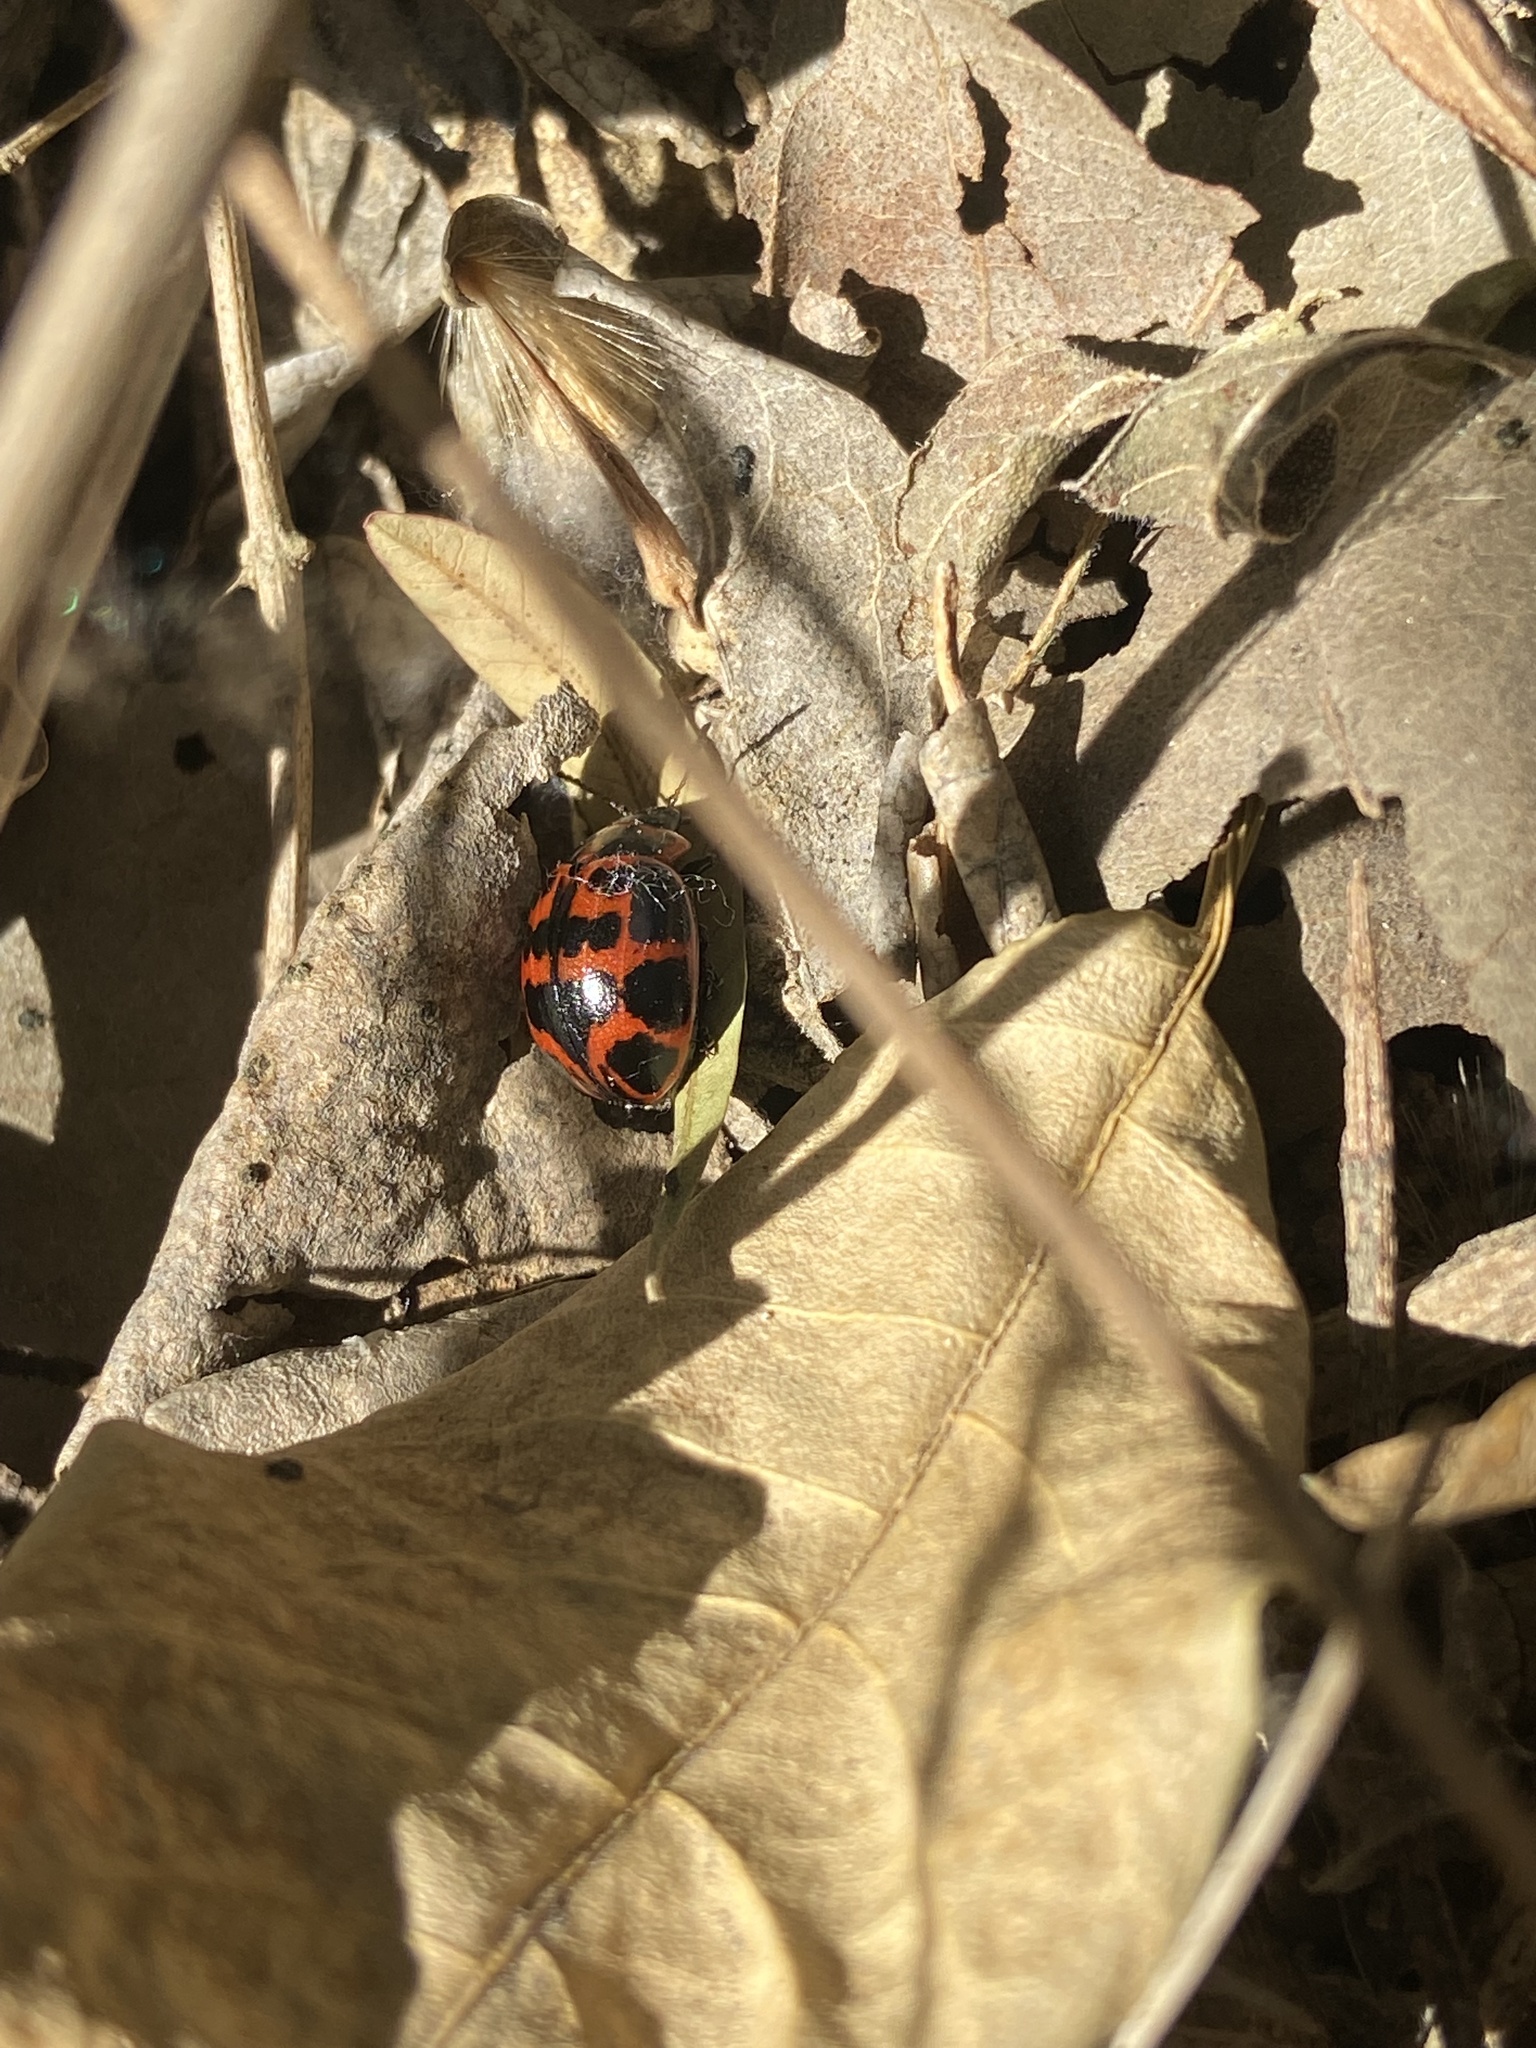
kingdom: Animalia
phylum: Arthropoda
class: Insecta
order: Coleoptera
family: Chrysomelidae
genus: Platyphora
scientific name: Platyphora
